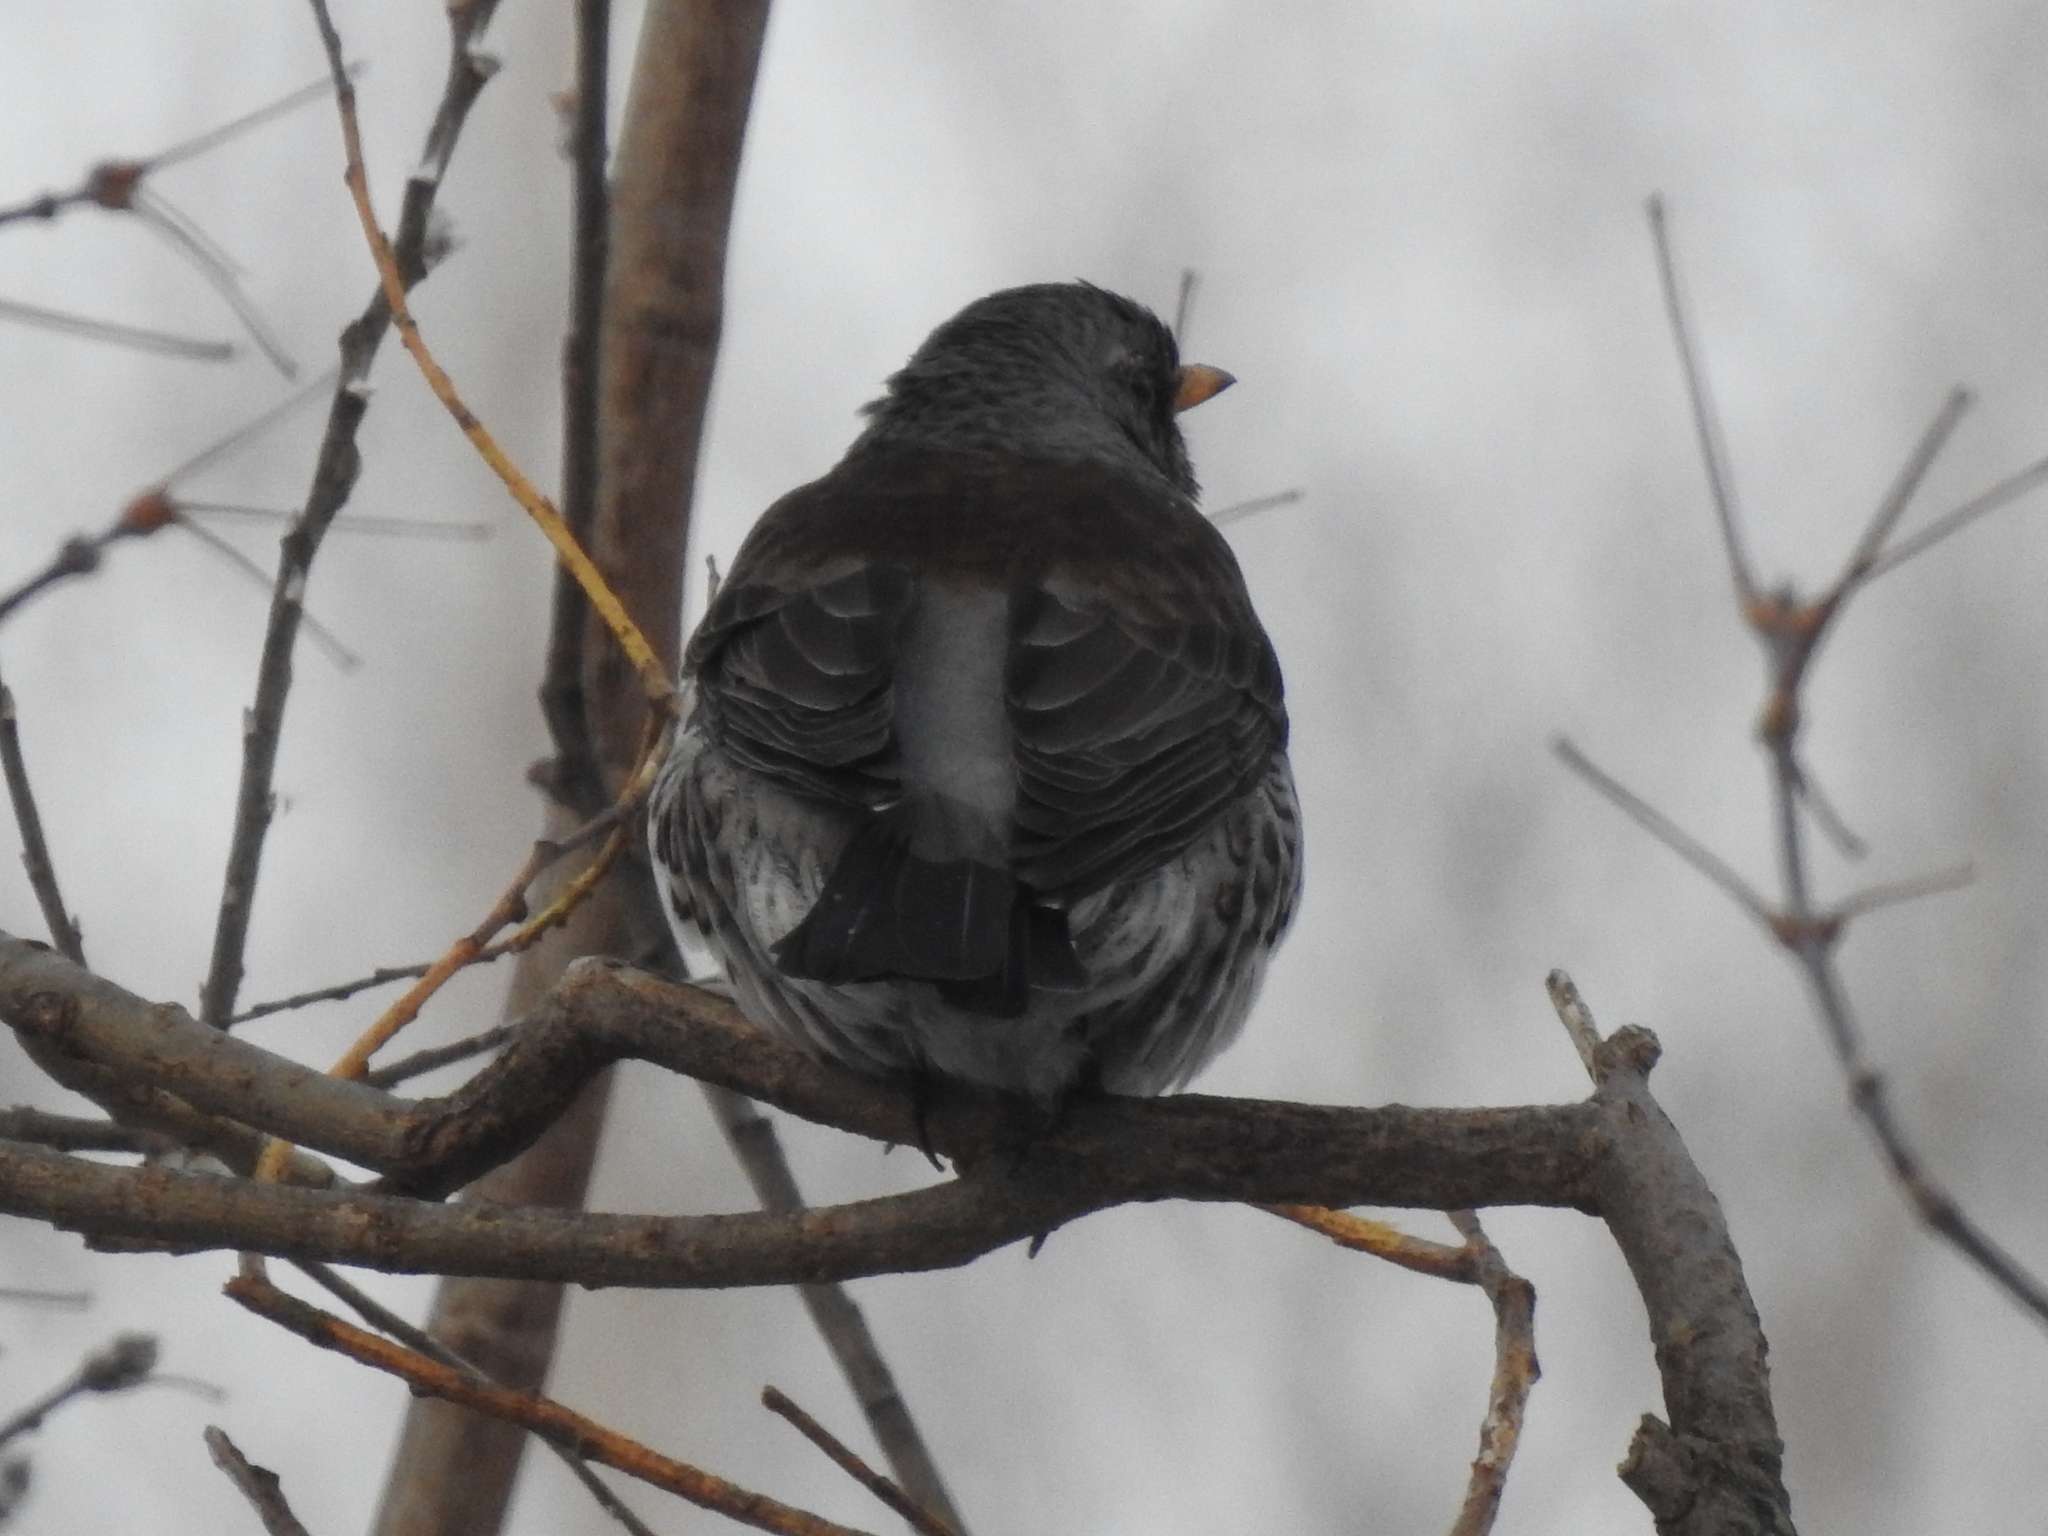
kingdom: Animalia
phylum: Chordata
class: Aves
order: Passeriformes
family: Turdidae
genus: Turdus
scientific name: Turdus pilaris
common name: Fieldfare
